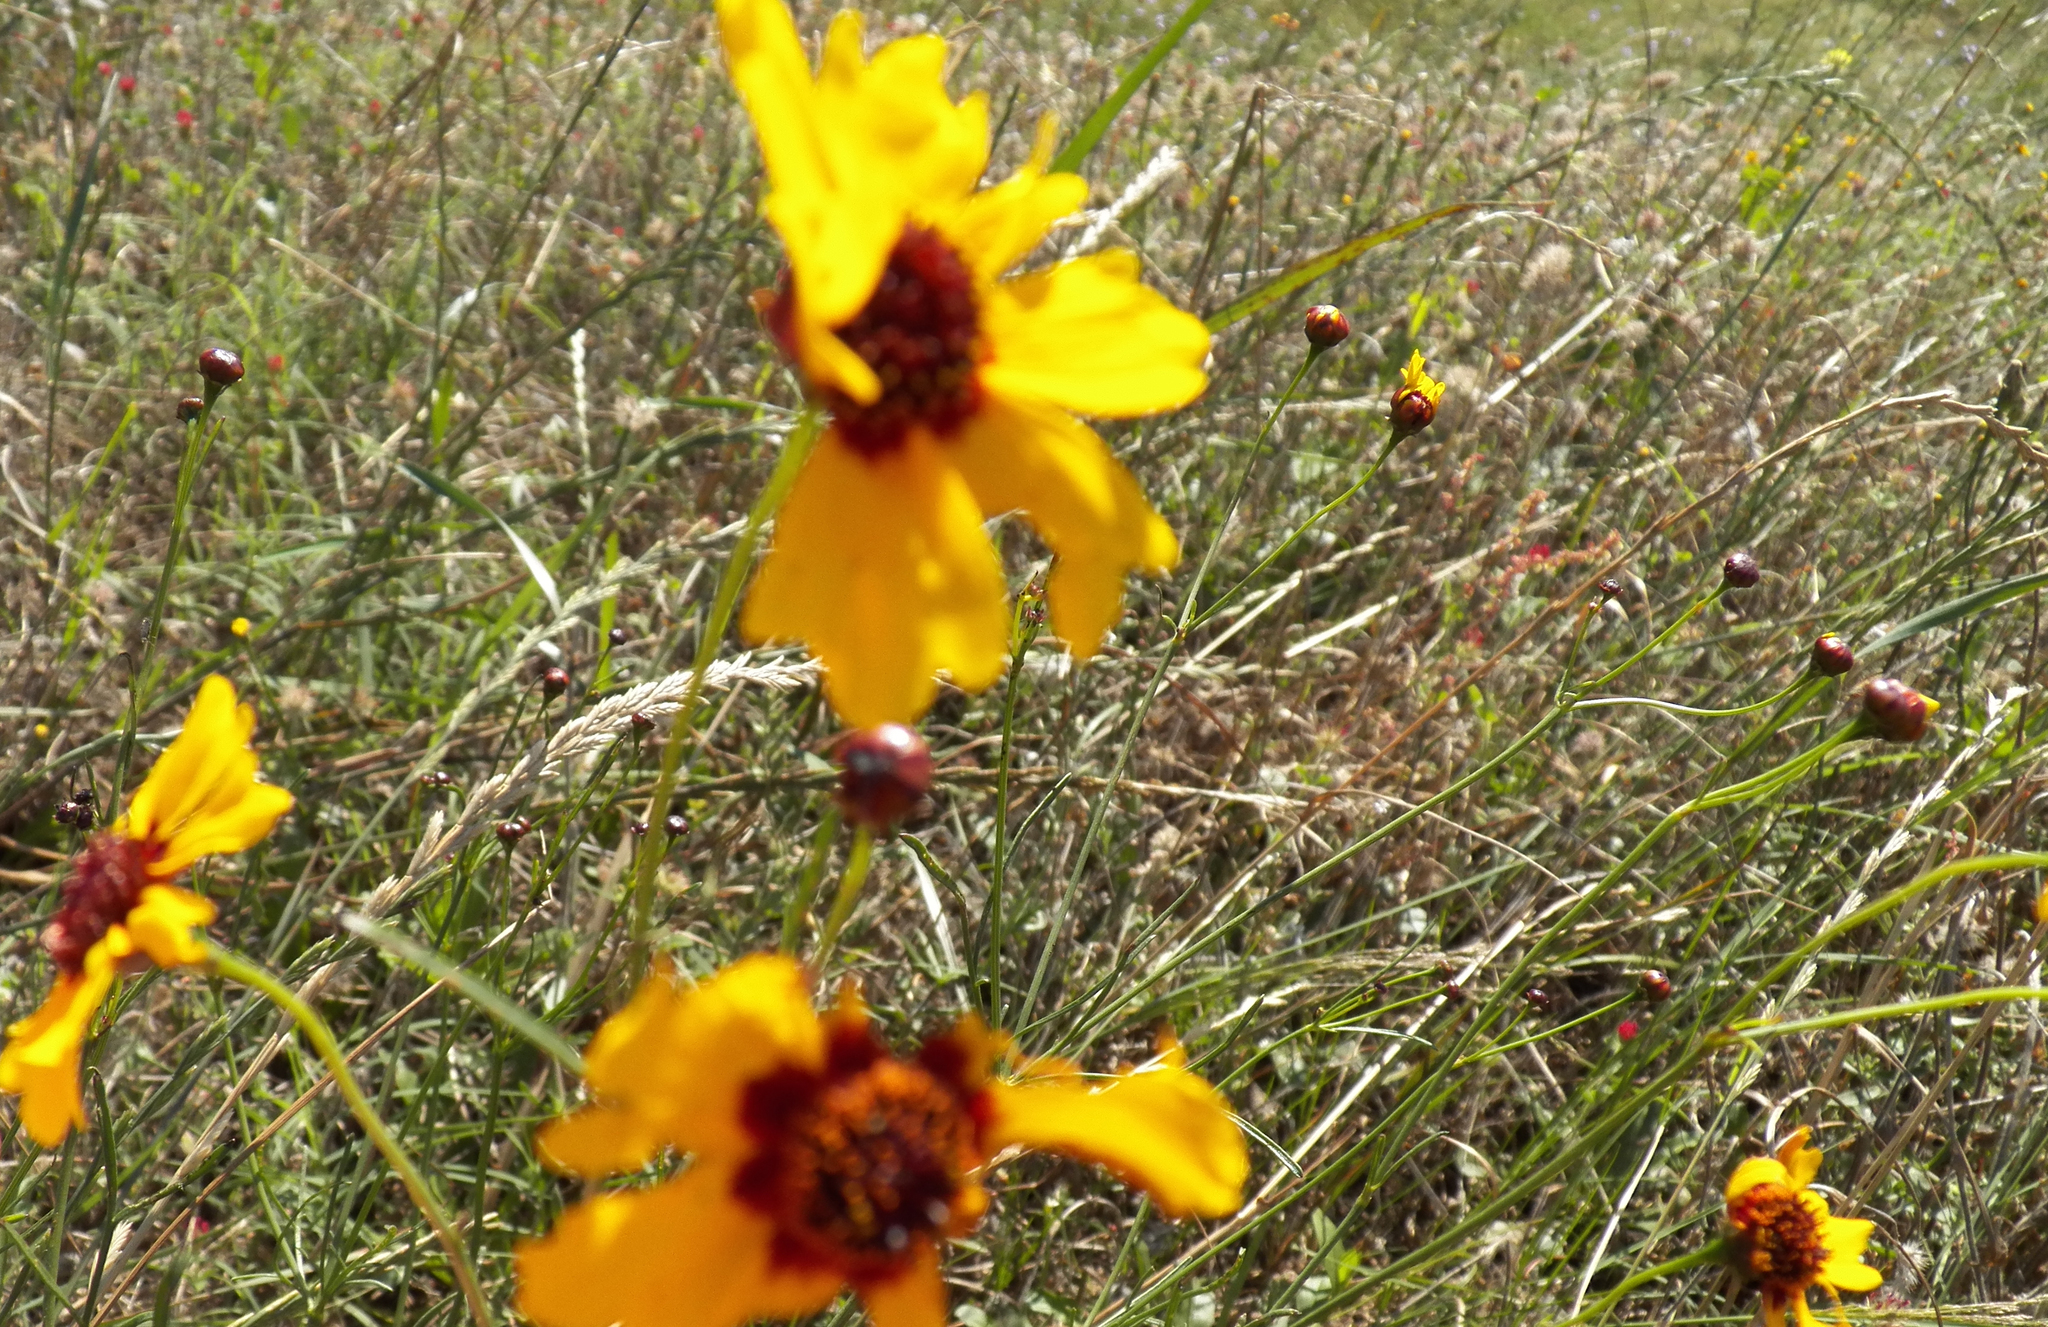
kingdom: Plantae
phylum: Tracheophyta
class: Magnoliopsida
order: Asterales
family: Asteraceae
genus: Coreopsis
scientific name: Coreopsis tinctoria
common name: Garden tickseed
